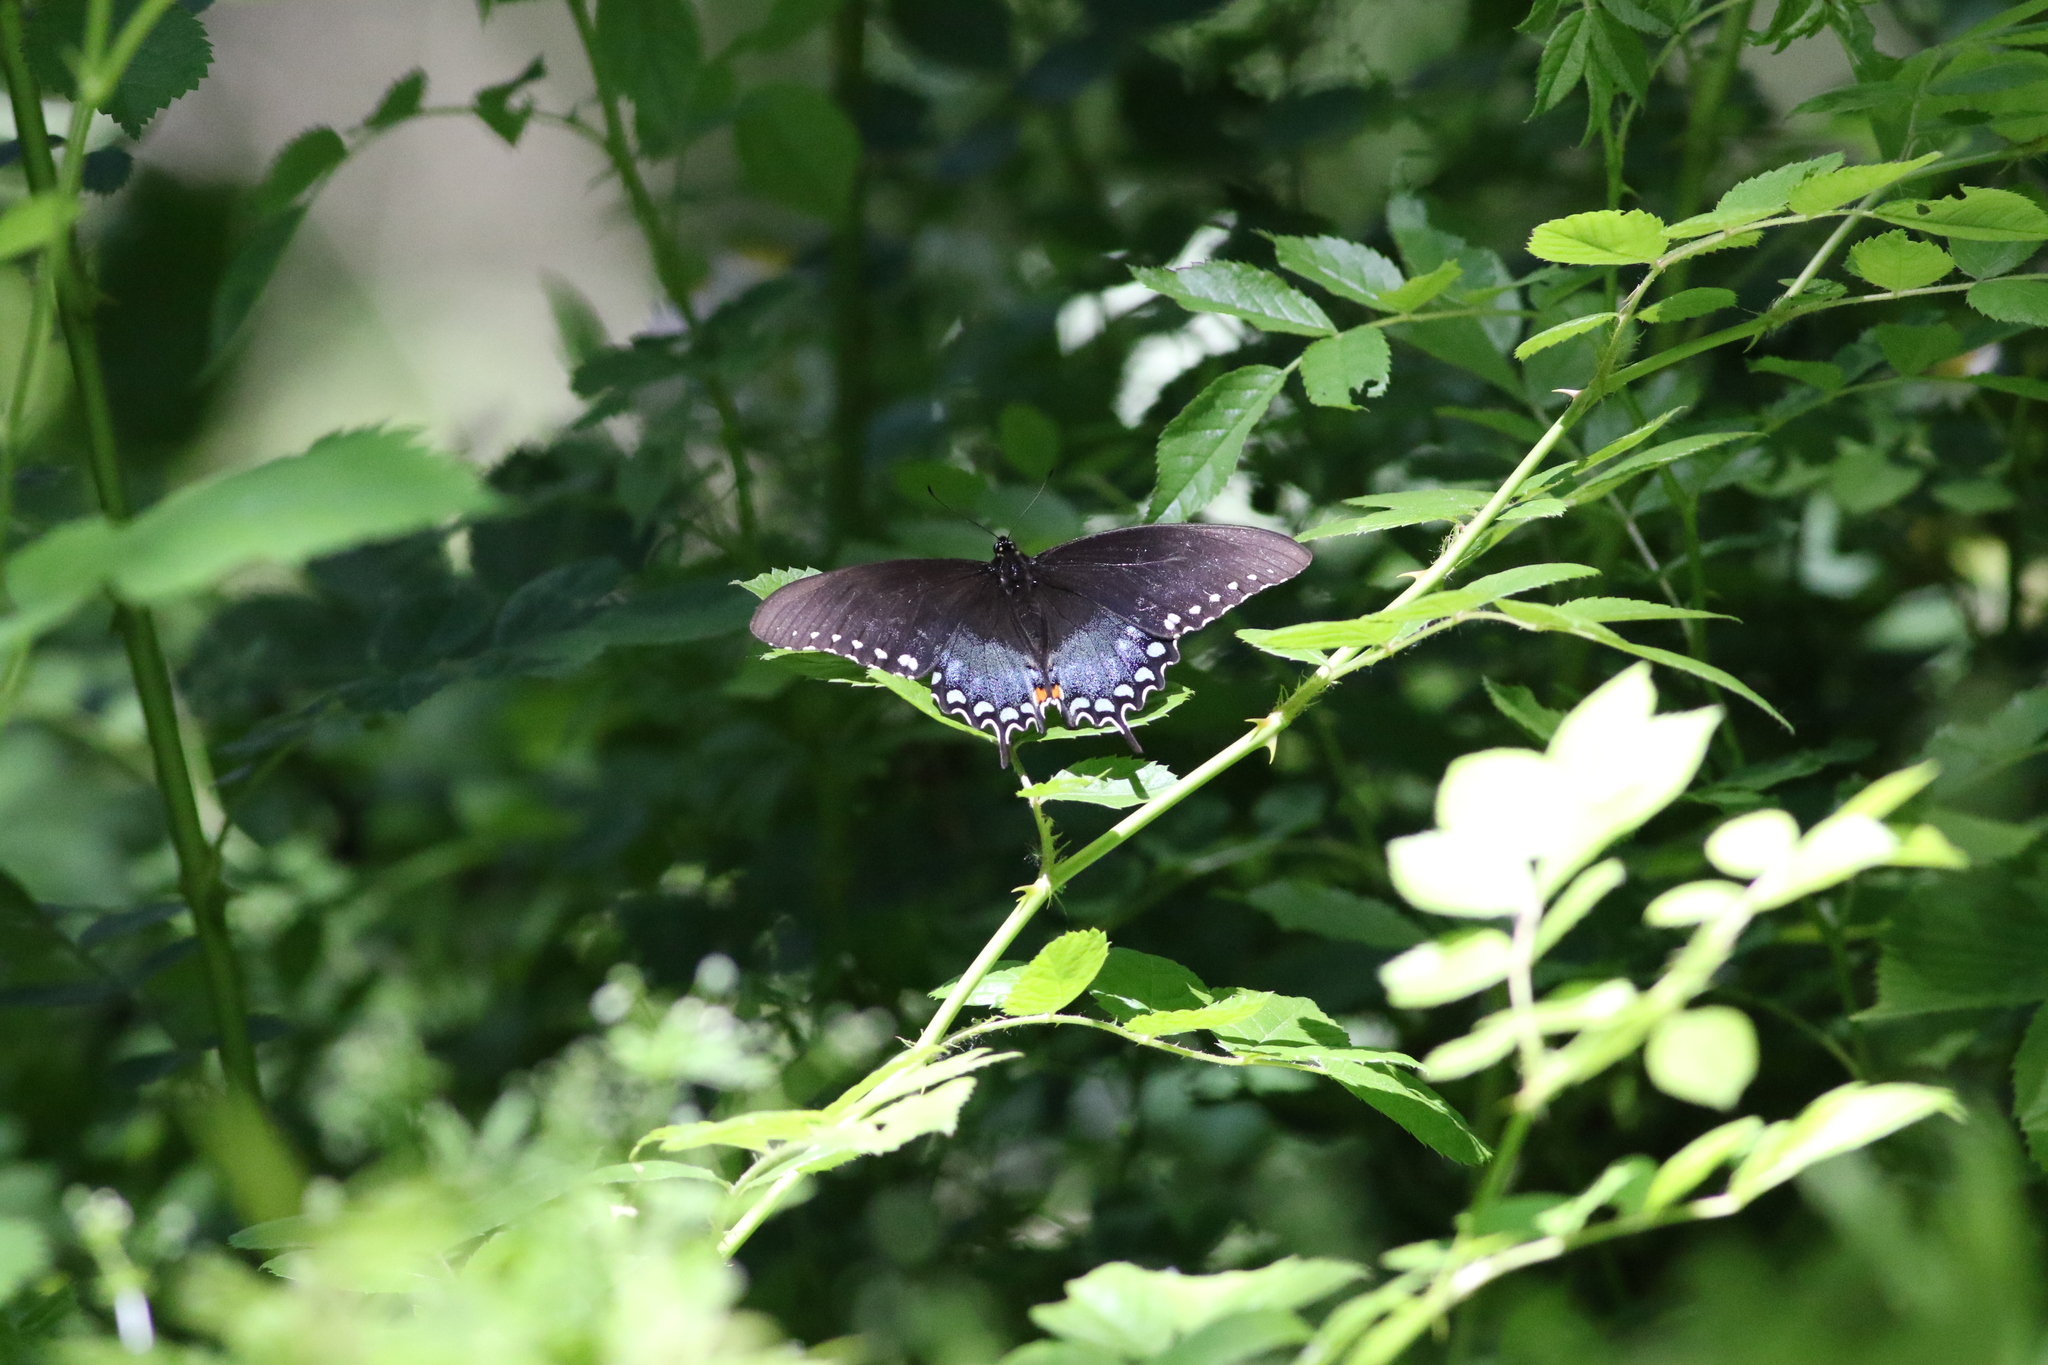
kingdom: Animalia
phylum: Arthropoda
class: Insecta
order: Lepidoptera
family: Papilionidae
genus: Papilio
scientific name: Papilio troilus
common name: Spicebush swallowtail
